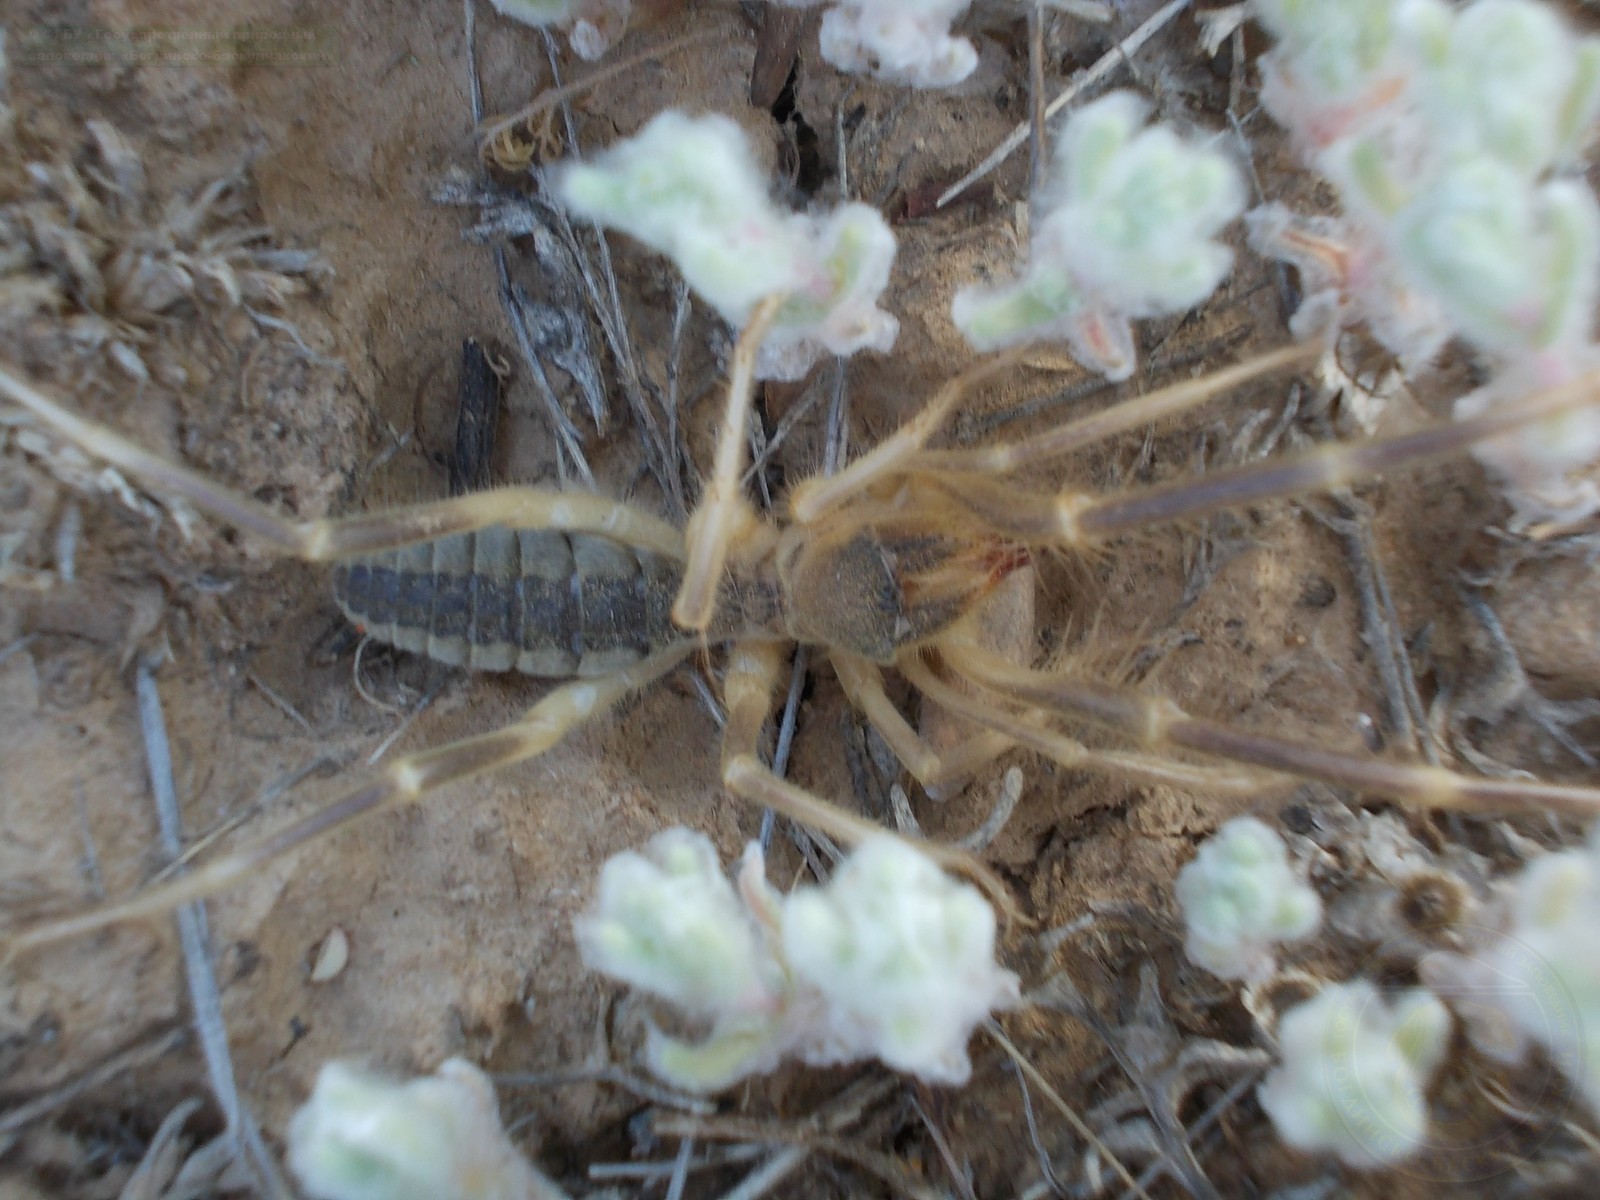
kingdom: Animalia
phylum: Arthropoda
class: Arachnida
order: Solifugae
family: Galeodidae
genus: Galeodes
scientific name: Galeodes araneoides
